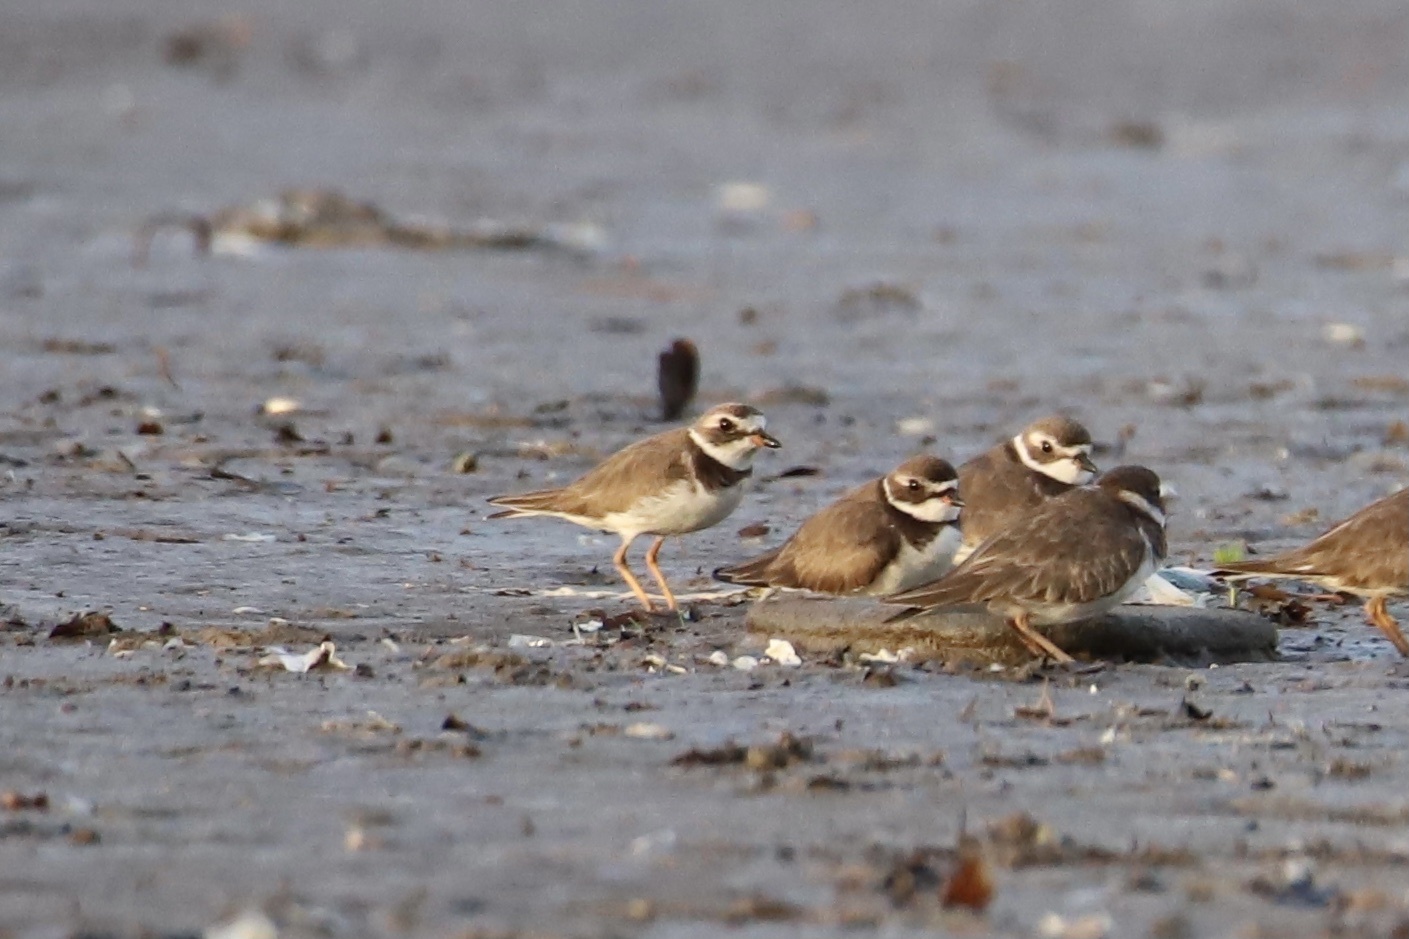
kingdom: Animalia
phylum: Chordata
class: Aves
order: Charadriiformes
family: Charadriidae
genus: Charadrius
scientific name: Charadrius semipalmatus
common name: Semipalmated plover
